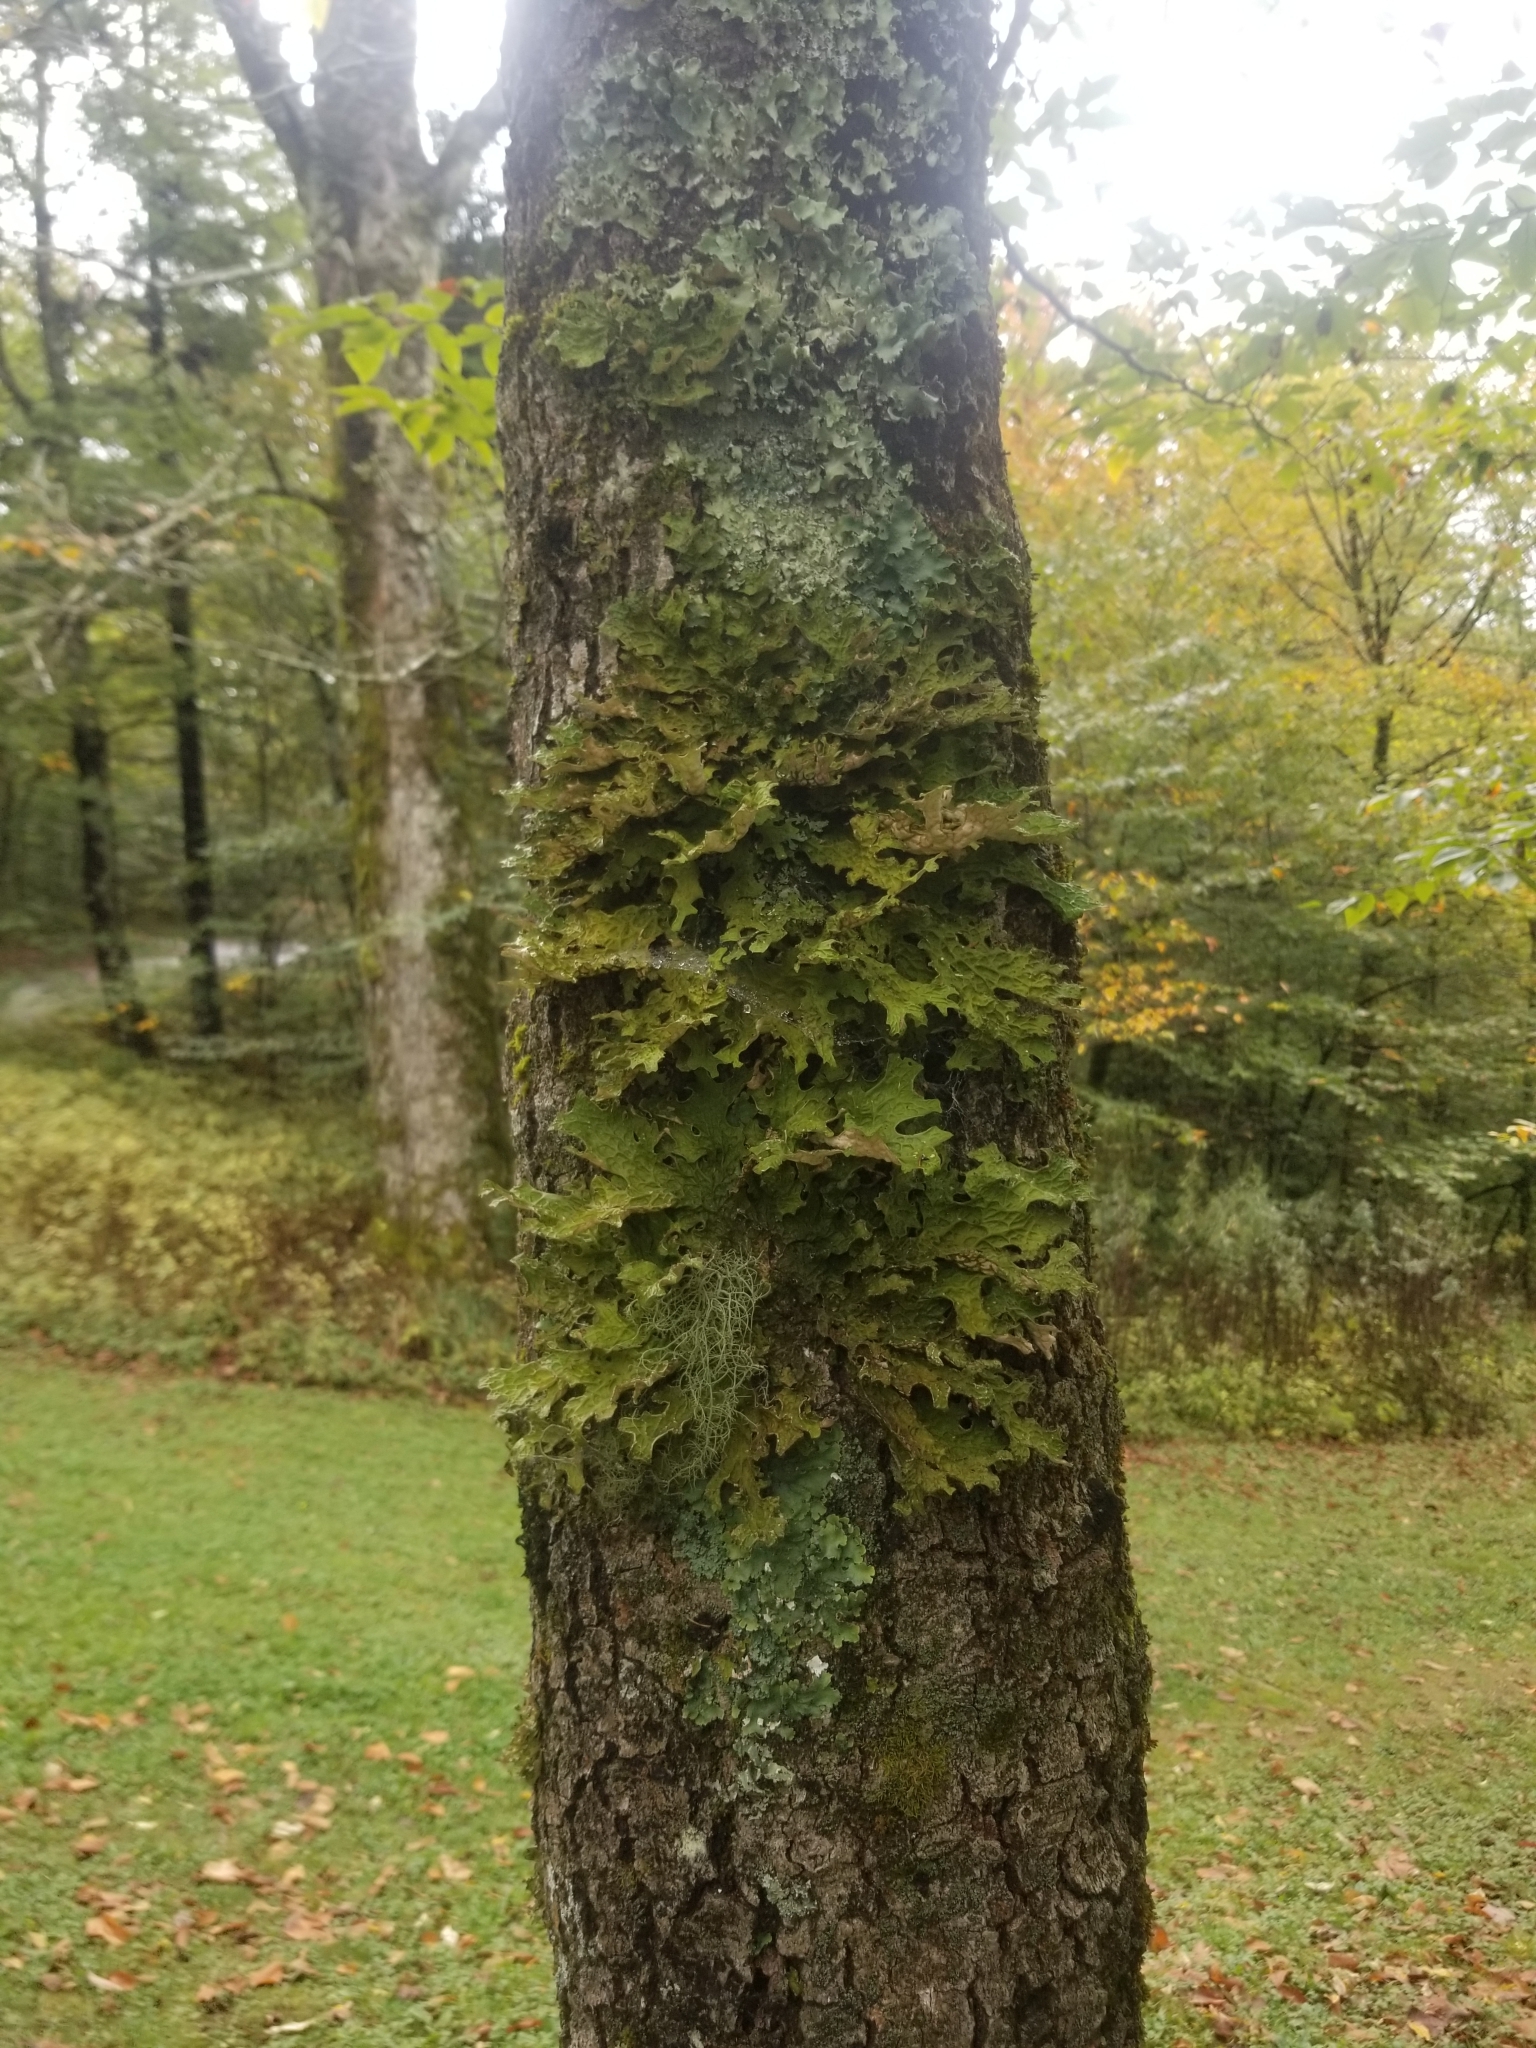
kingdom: Fungi
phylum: Ascomycota
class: Lecanoromycetes
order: Peltigerales
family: Lobariaceae
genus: Lobaria
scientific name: Lobaria pulmonaria
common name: Lungwort
